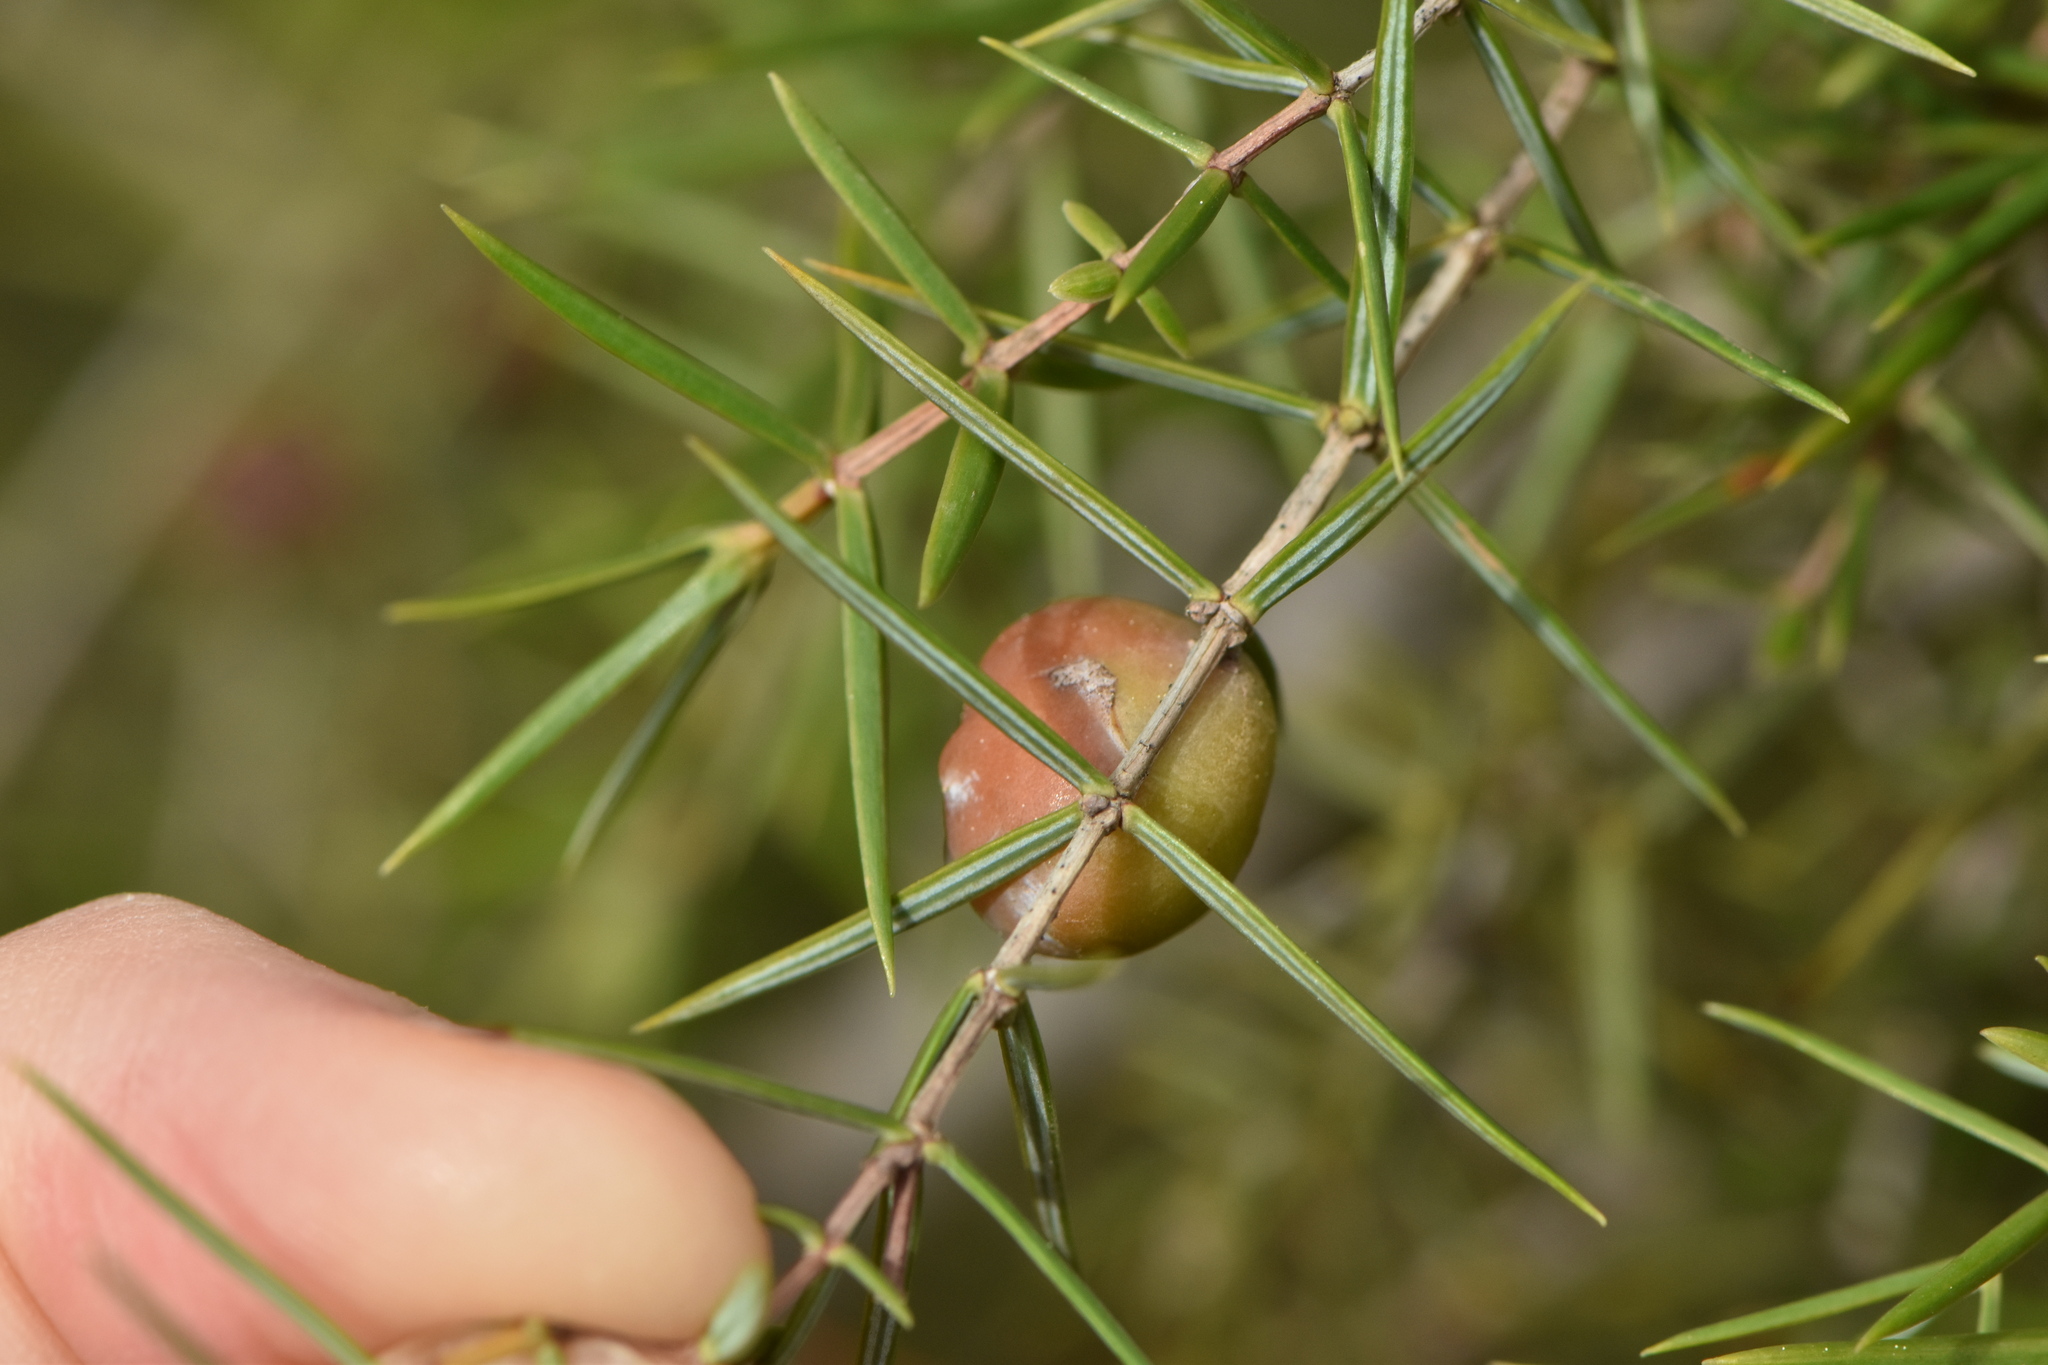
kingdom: Plantae
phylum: Tracheophyta
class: Pinopsida
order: Pinales
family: Cupressaceae
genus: Juniperus
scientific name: Juniperus oxycedrus
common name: Prickly juniper
